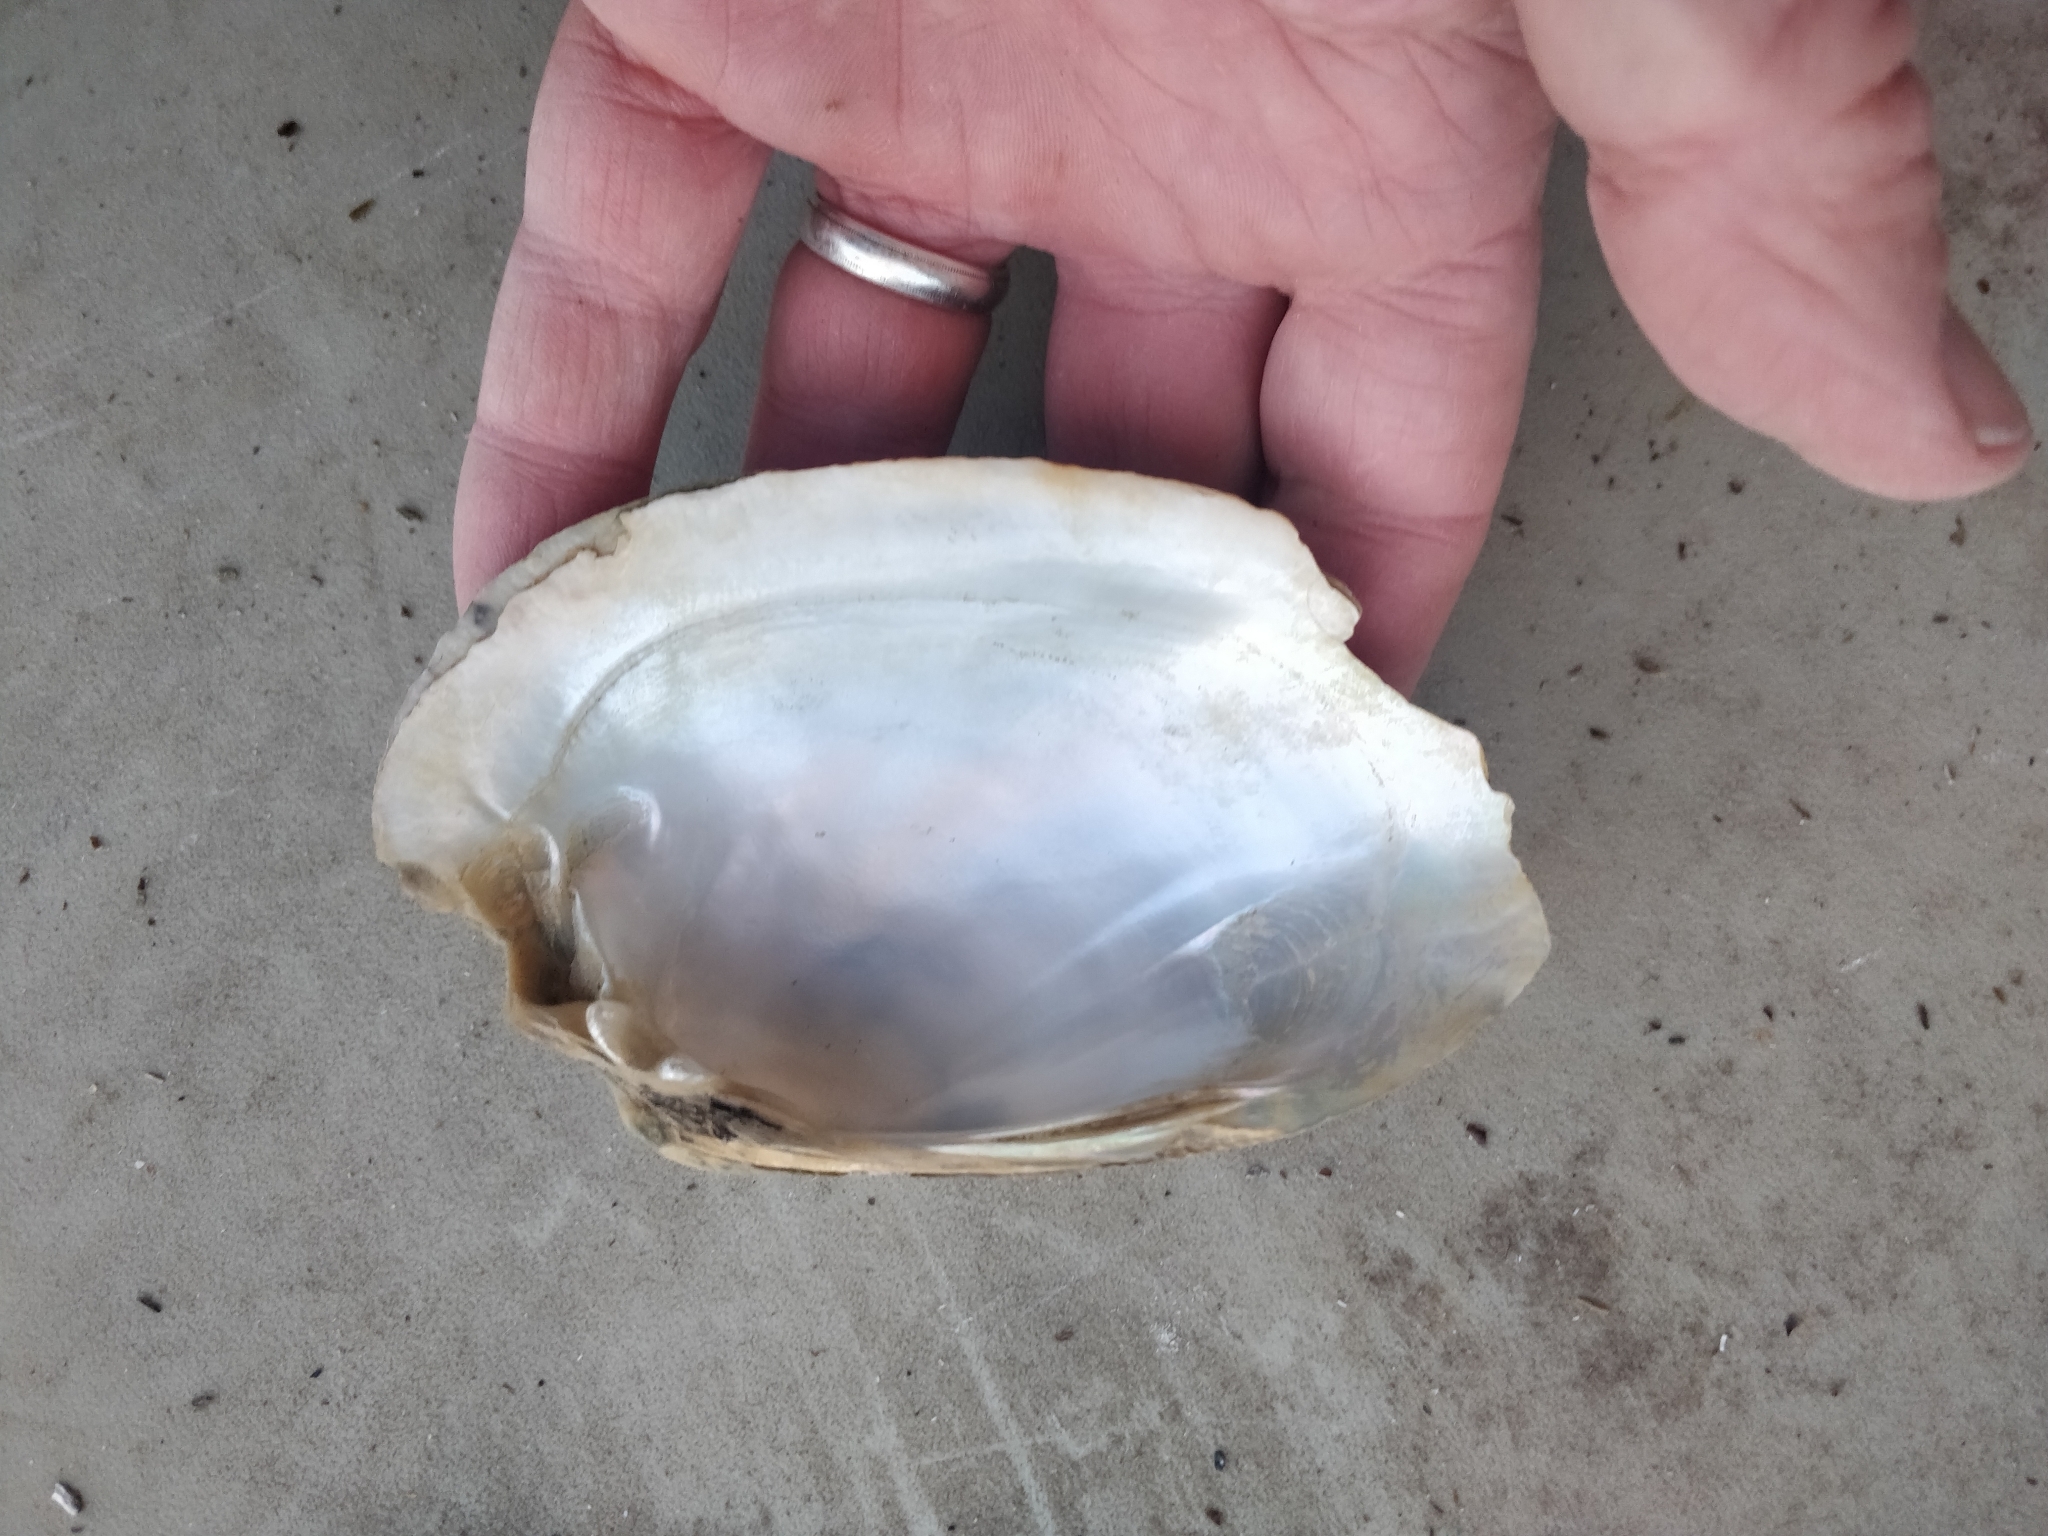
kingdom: Animalia
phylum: Mollusca
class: Bivalvia
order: Unionida
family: Unionidae
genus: Lampsilis
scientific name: Lampsilis cardium
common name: Plain pocketbook
